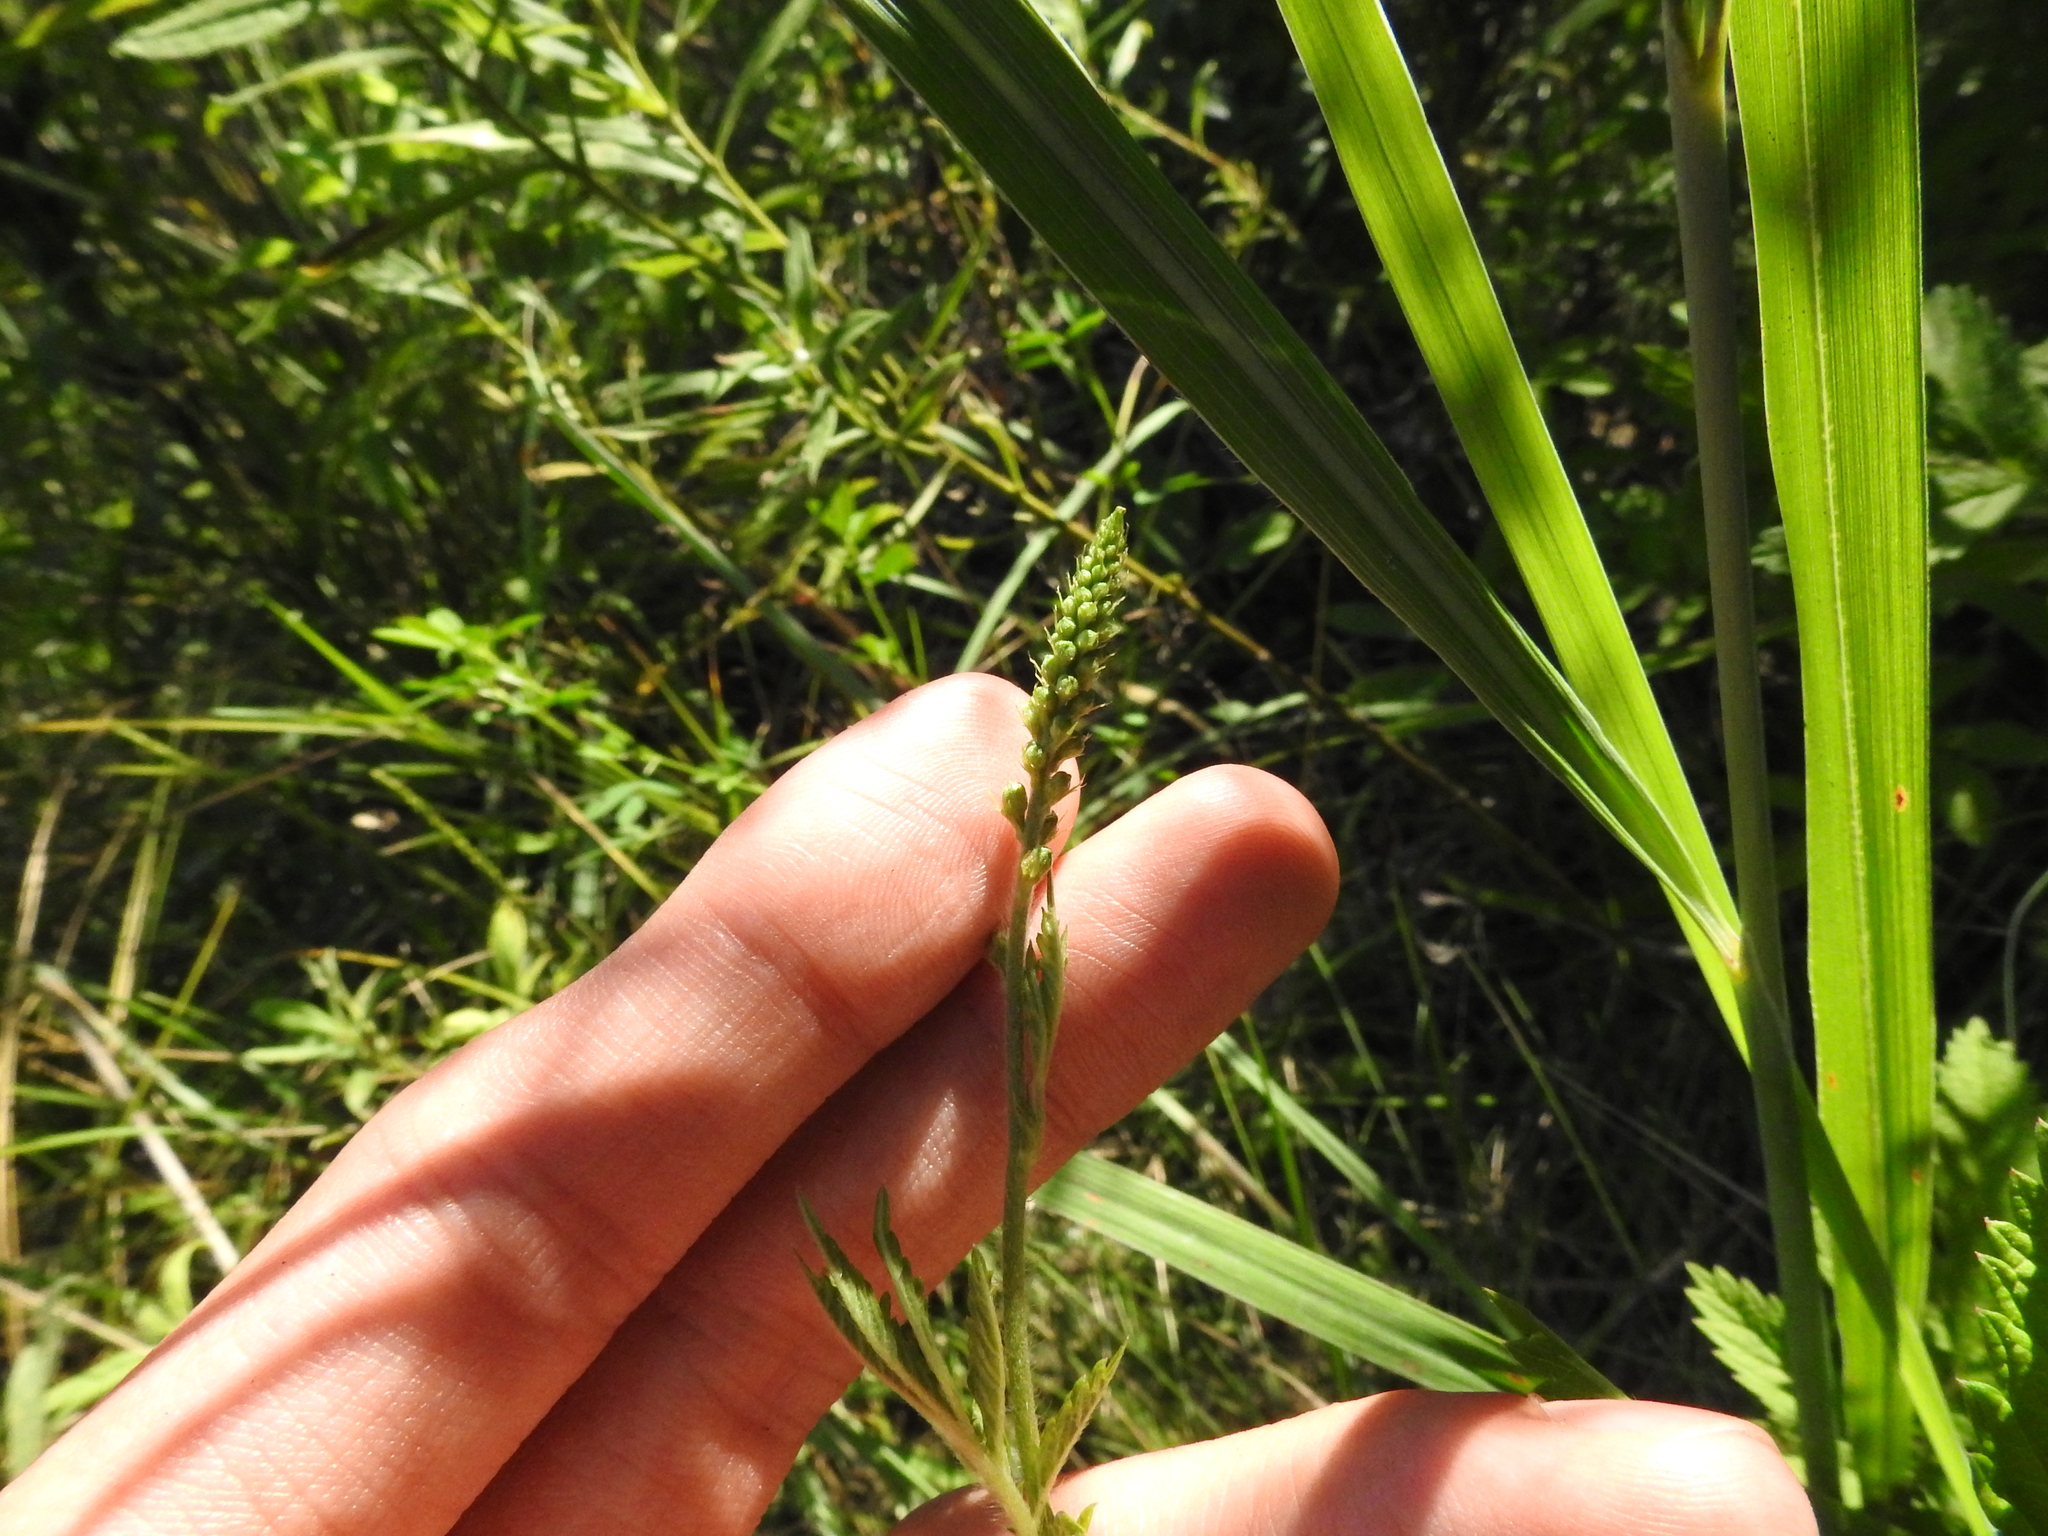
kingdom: Plantae
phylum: Tracheophyta
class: Magnoliopsida
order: Rosales
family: Rosaceae
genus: Agrimonia
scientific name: Agrimonia parviflora
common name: Harvest-lice
